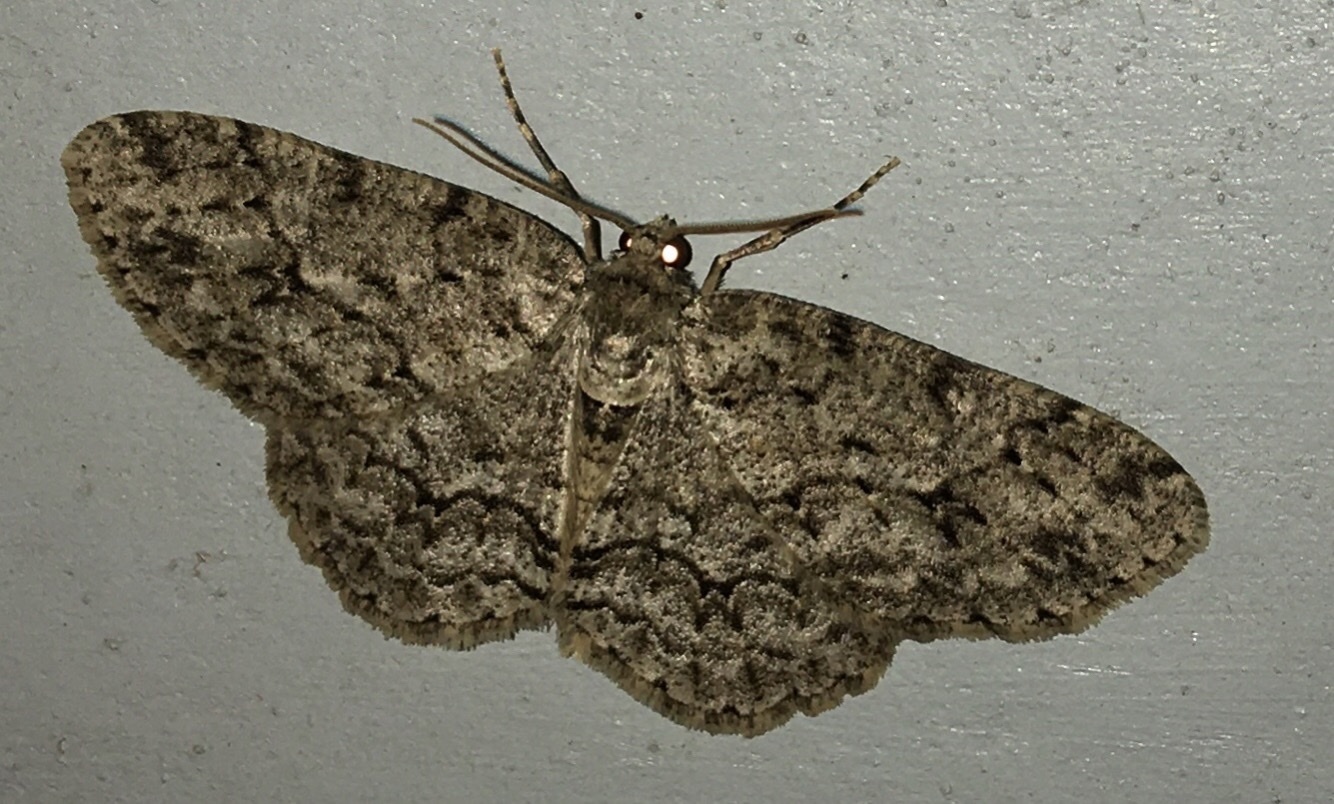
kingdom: Animalia
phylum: Arthropoda
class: Insecta
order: Lepidoptera
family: Geometridae
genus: Ectropis
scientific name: Ectropis crepuscularia
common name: Engrailed
